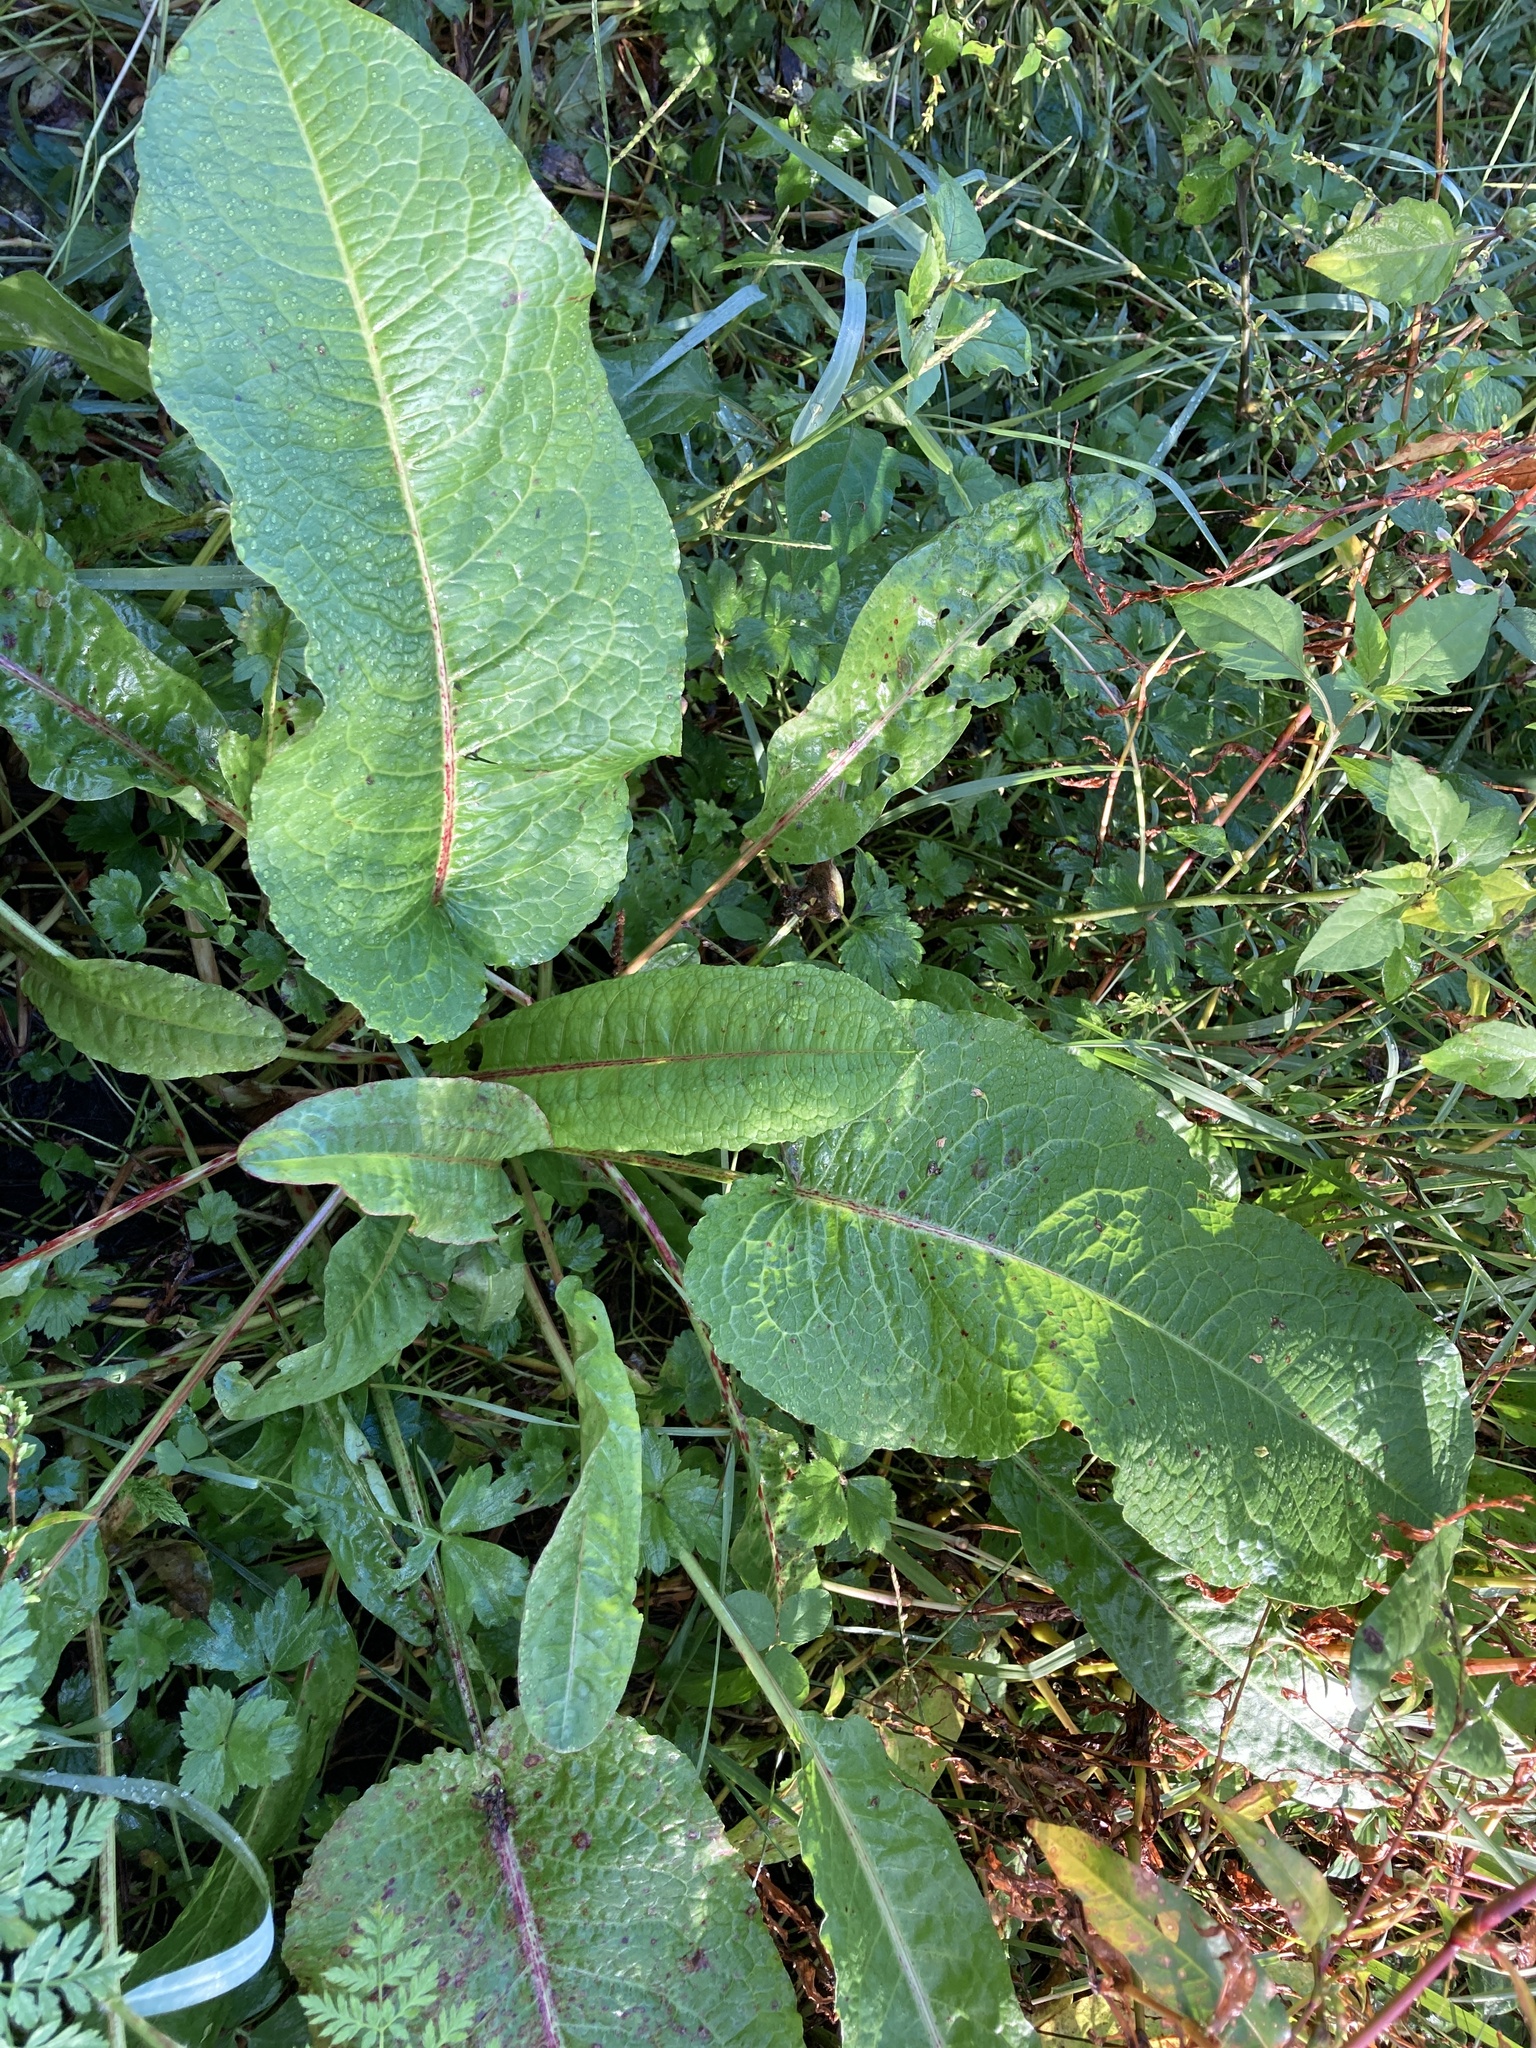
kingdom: Plantae
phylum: Tracheophyta
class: Magnoliopsida
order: Caryophyllales
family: Polygonaceae
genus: Rumex
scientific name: Rumex obtusifolius
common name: Bitter dock
